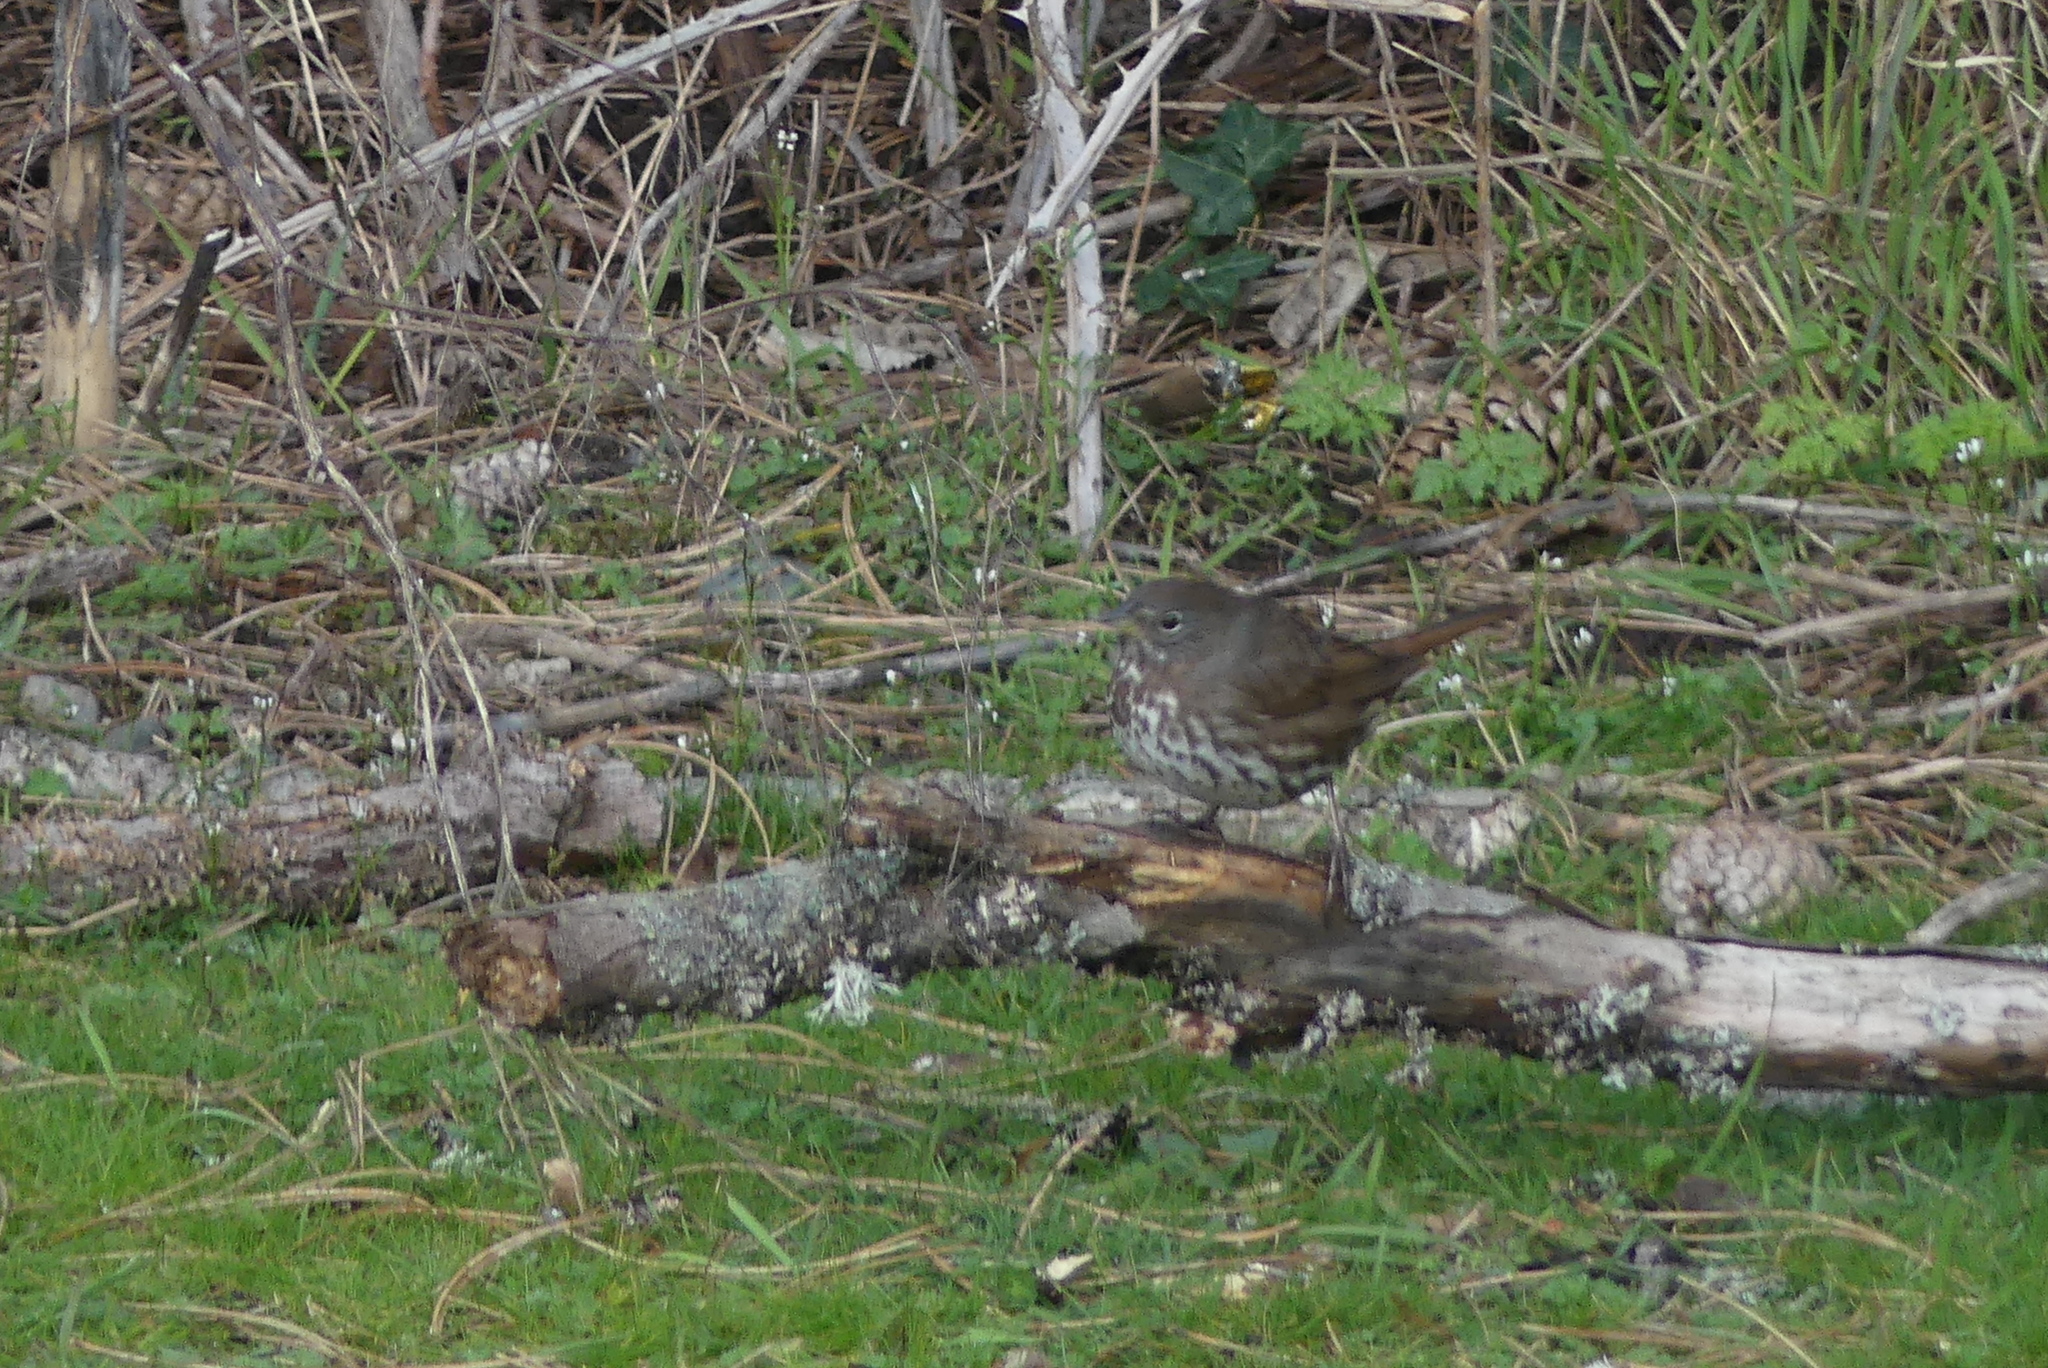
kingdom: Animalia
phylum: Chordata
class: Aves
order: Passeriformes
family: Passerellidae
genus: Passerella
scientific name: Passerella iliaca
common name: Fox sparrow
